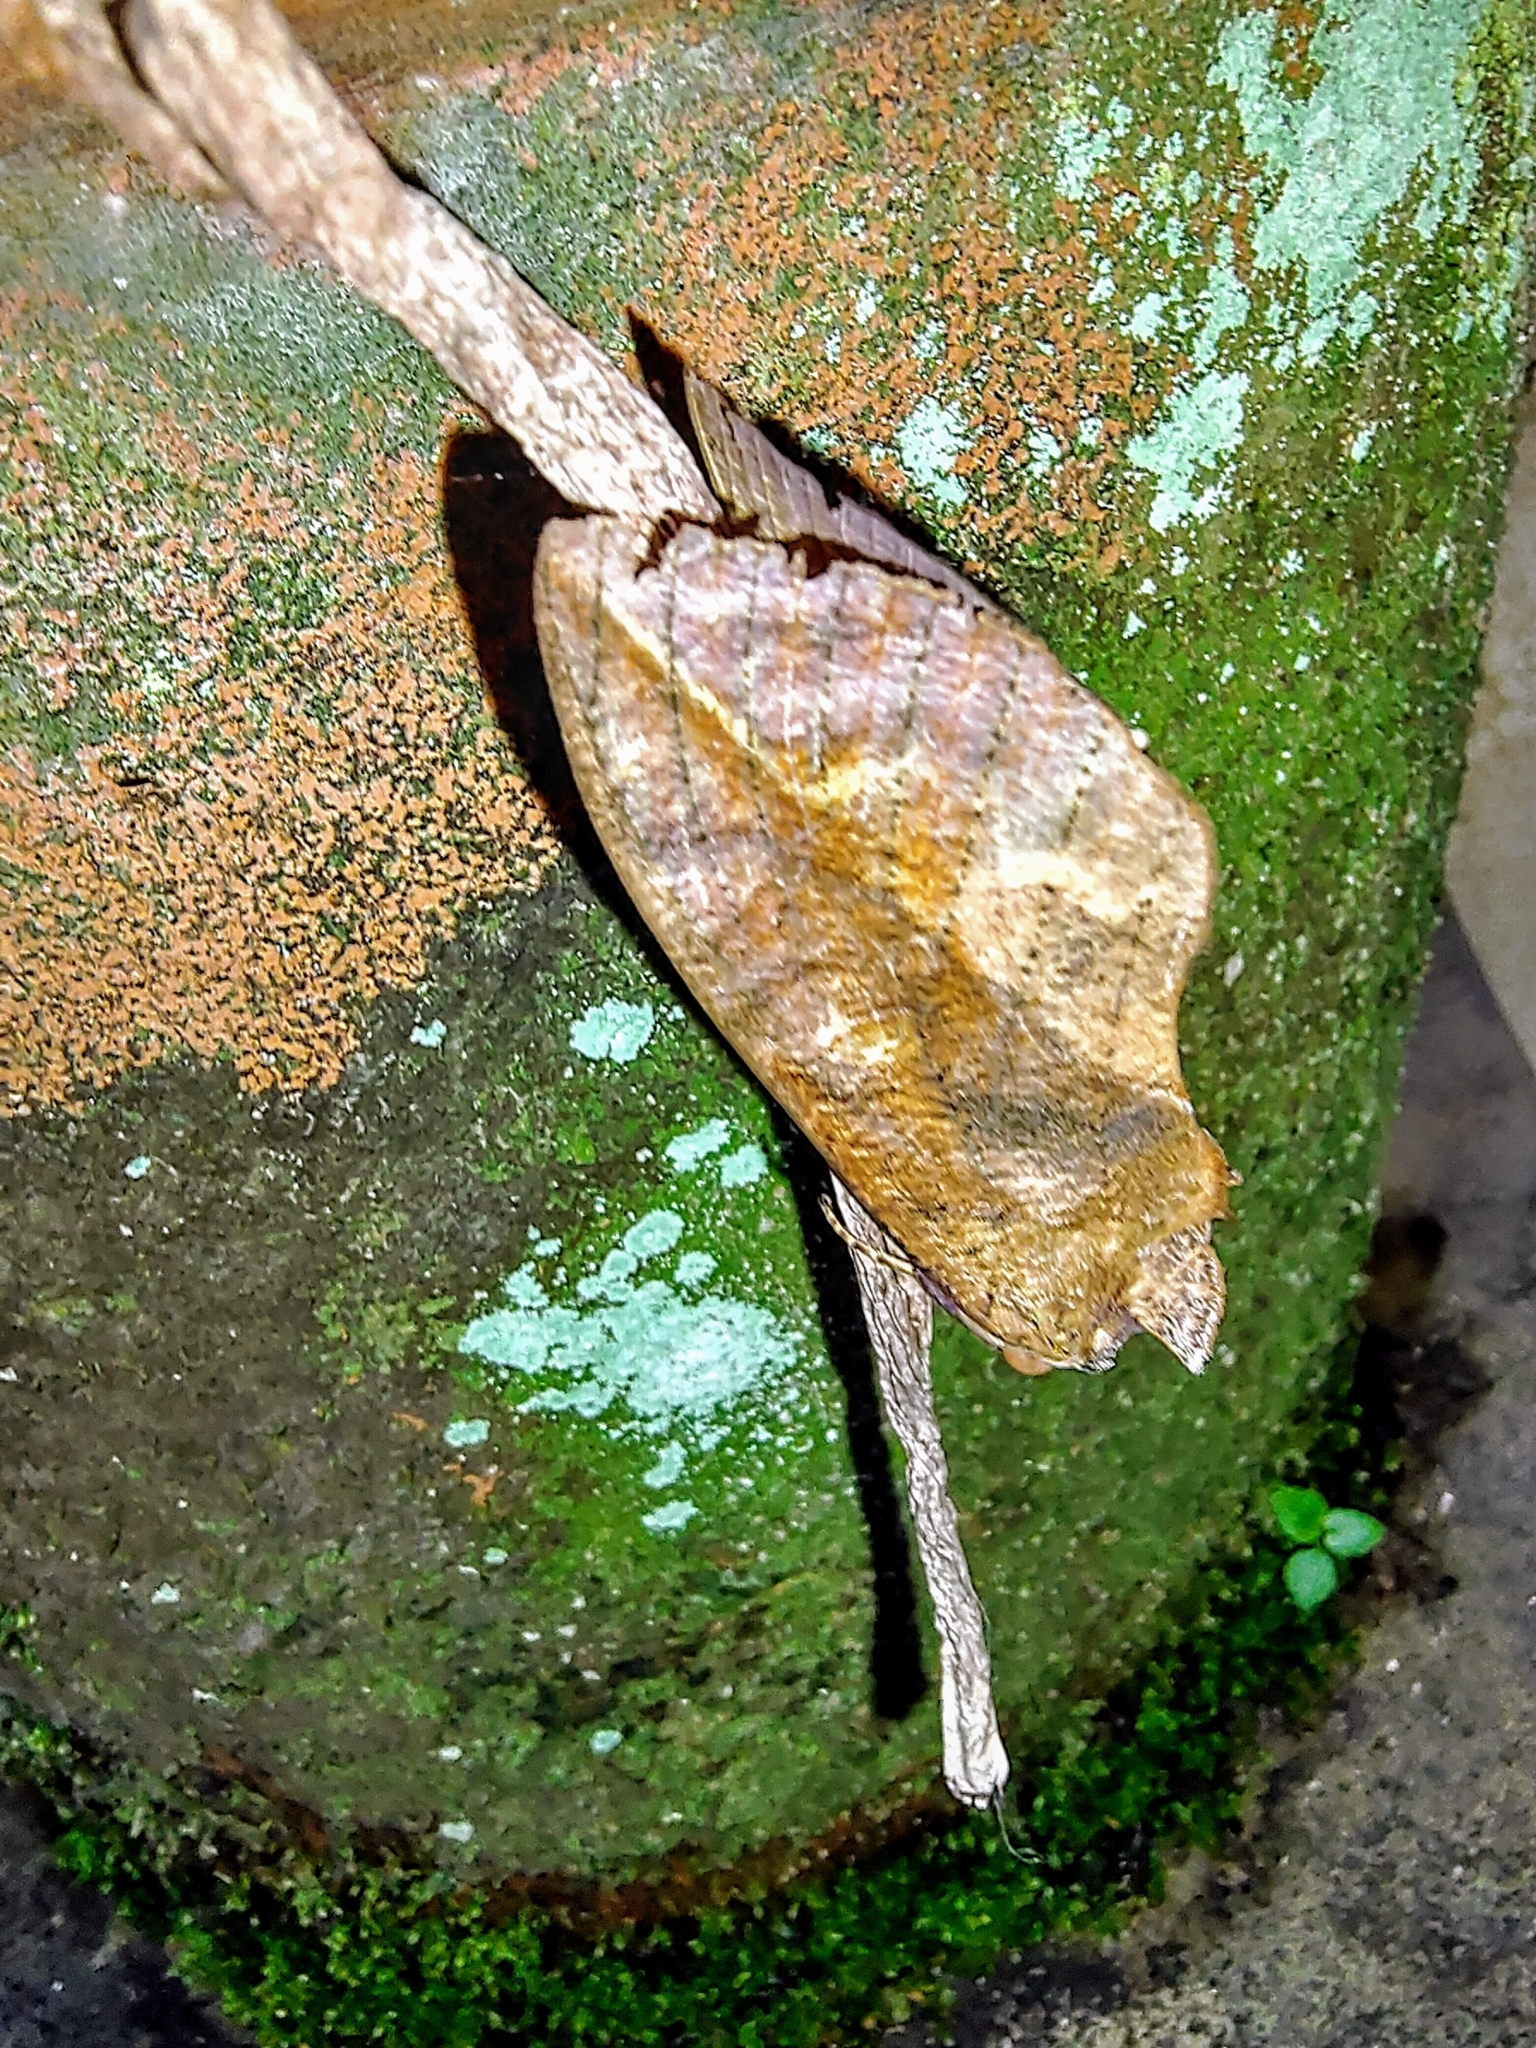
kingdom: Animalia
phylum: Arthropoda
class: Insecta
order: Lepidoptera
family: Erebidae
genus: Eudocima
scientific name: Eudocima phalonia
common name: Wasp
